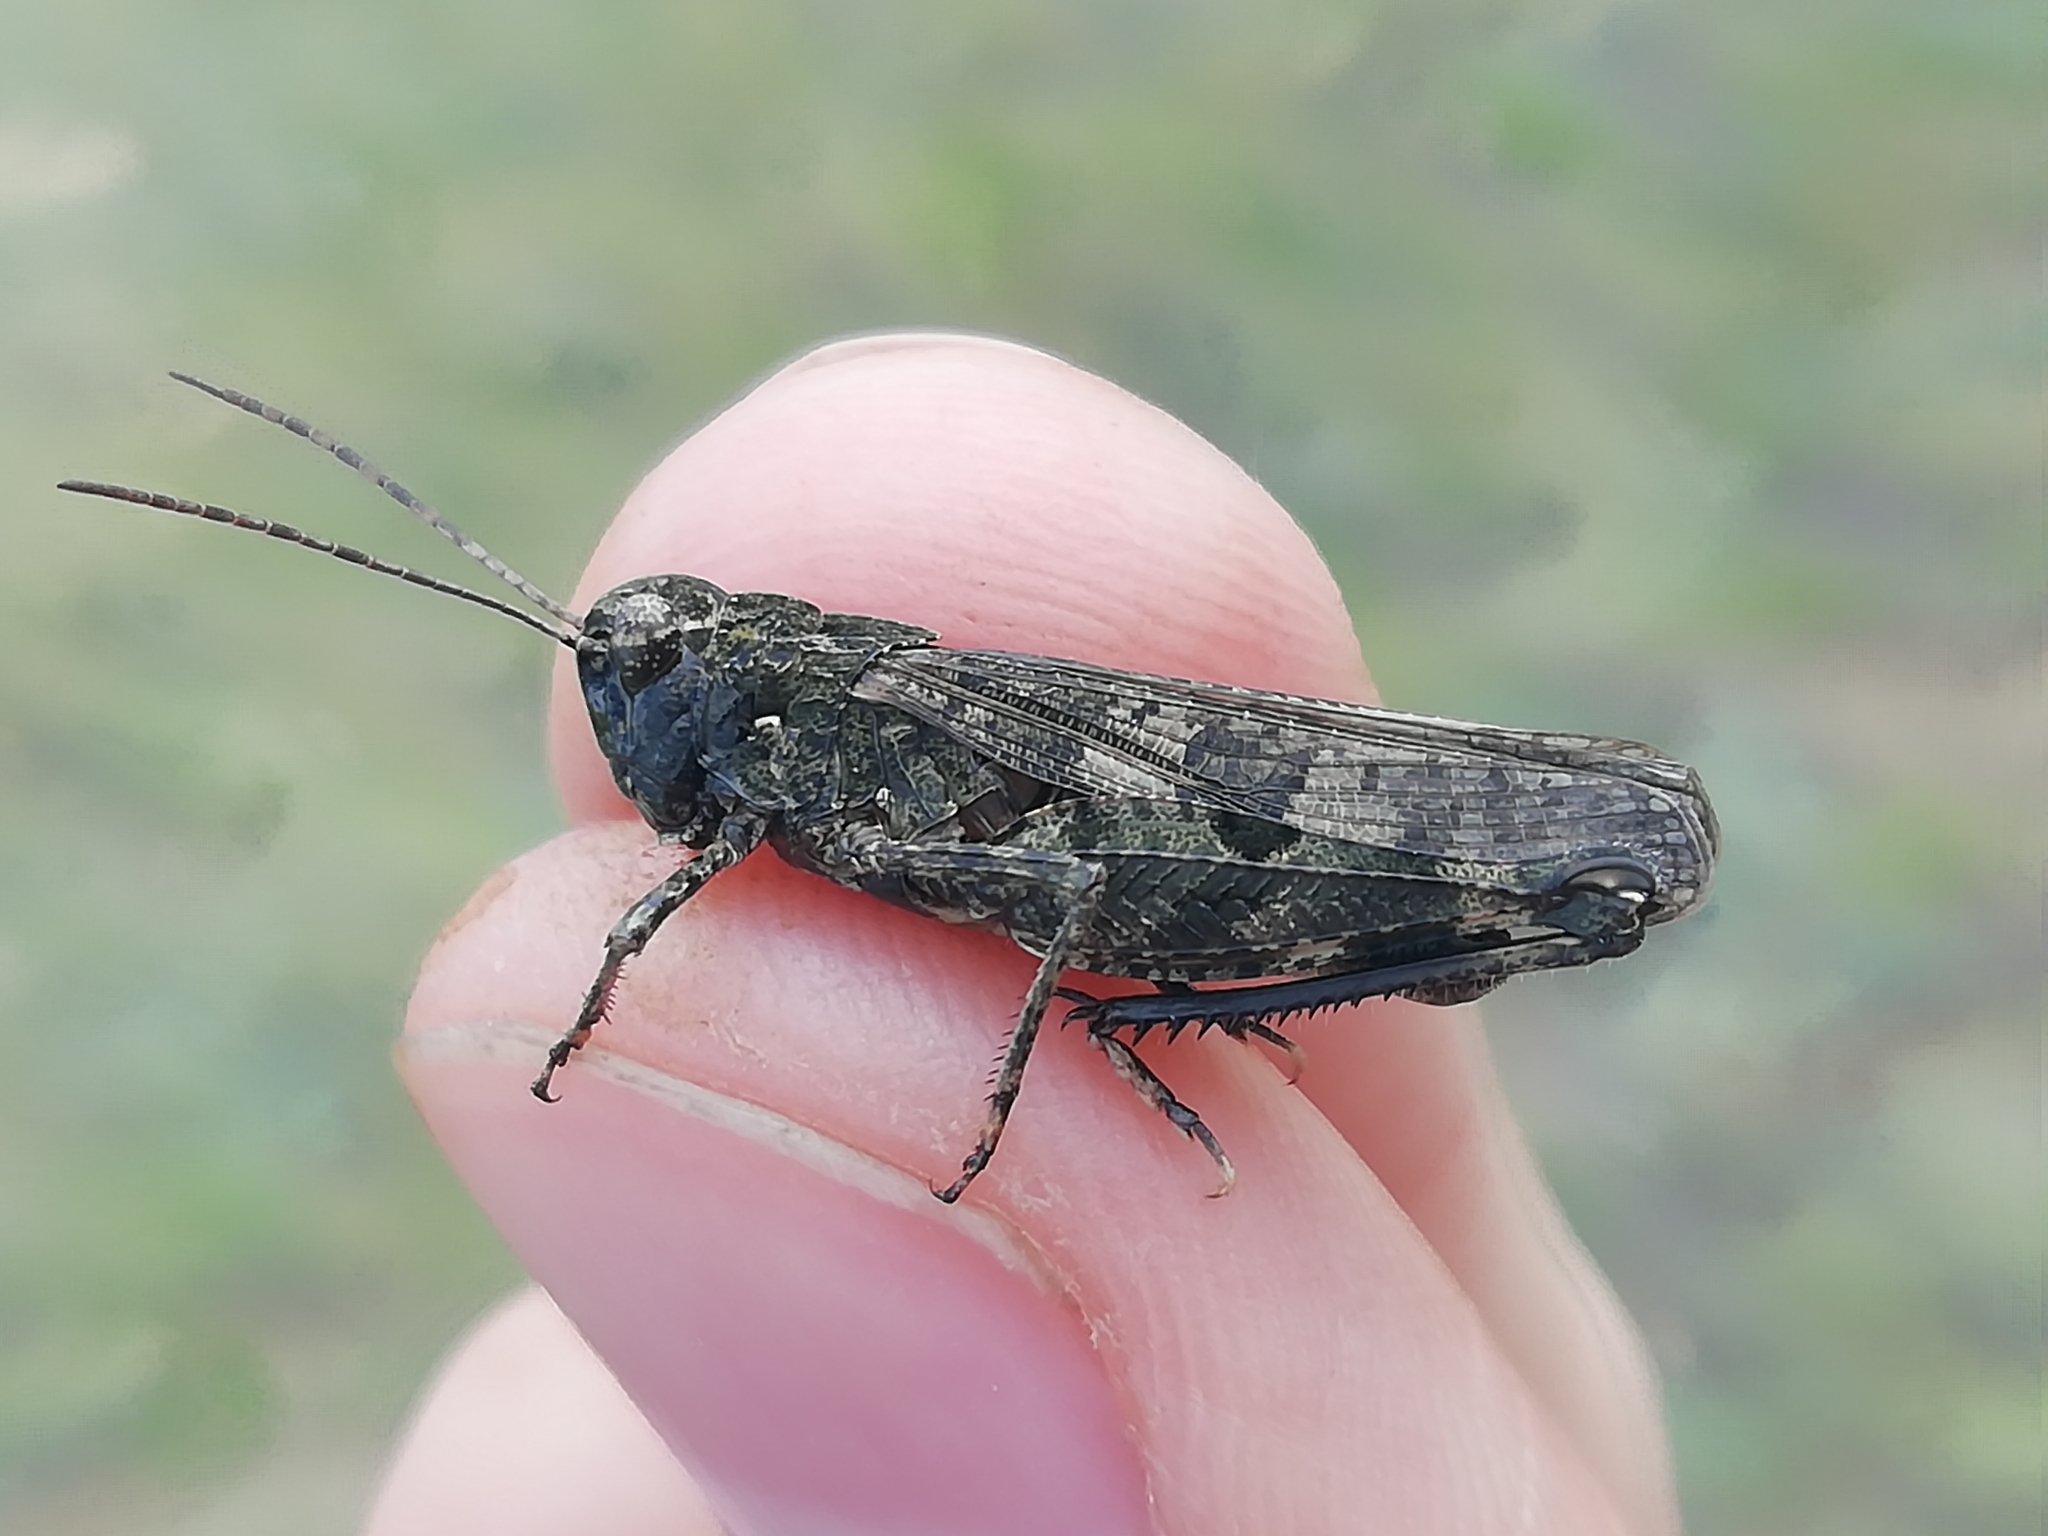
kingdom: Animalia
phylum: Arthropoda
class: Insecta
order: Orthoptera
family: Acrididae
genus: Celes
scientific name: Celes variabilis
